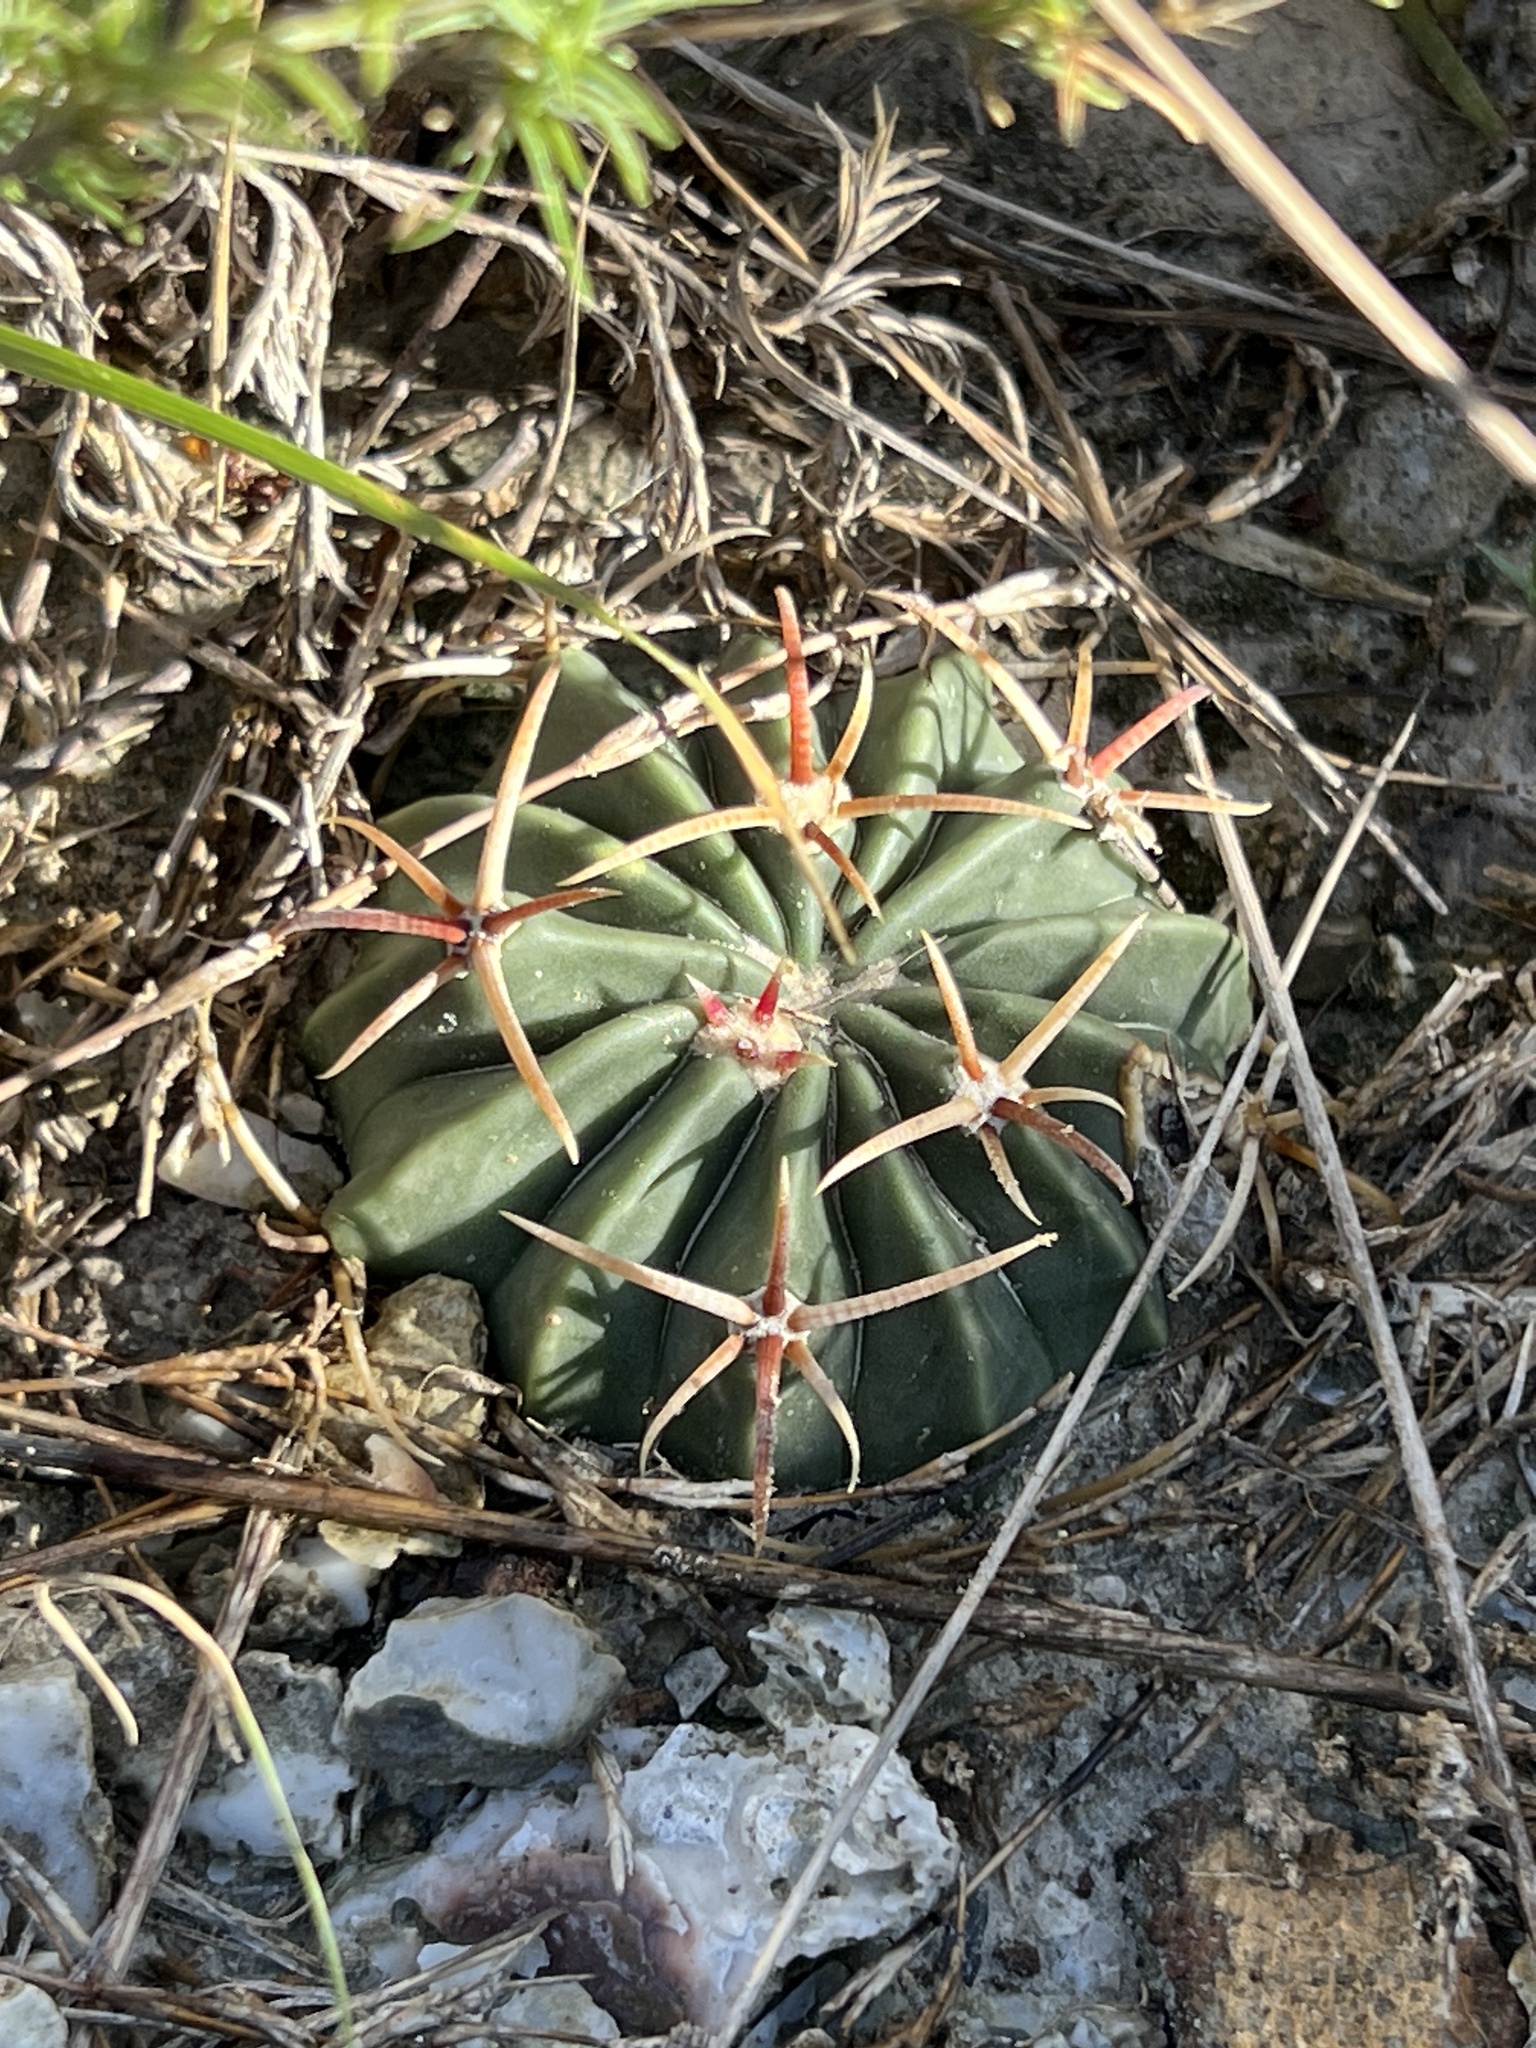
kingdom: Plantae
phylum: Tracheophyta
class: Magnoliopsida
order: Caryophyllales
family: Cactaceae
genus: Echinocactus
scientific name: Echinocactus texensis
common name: Devil's pincushion
